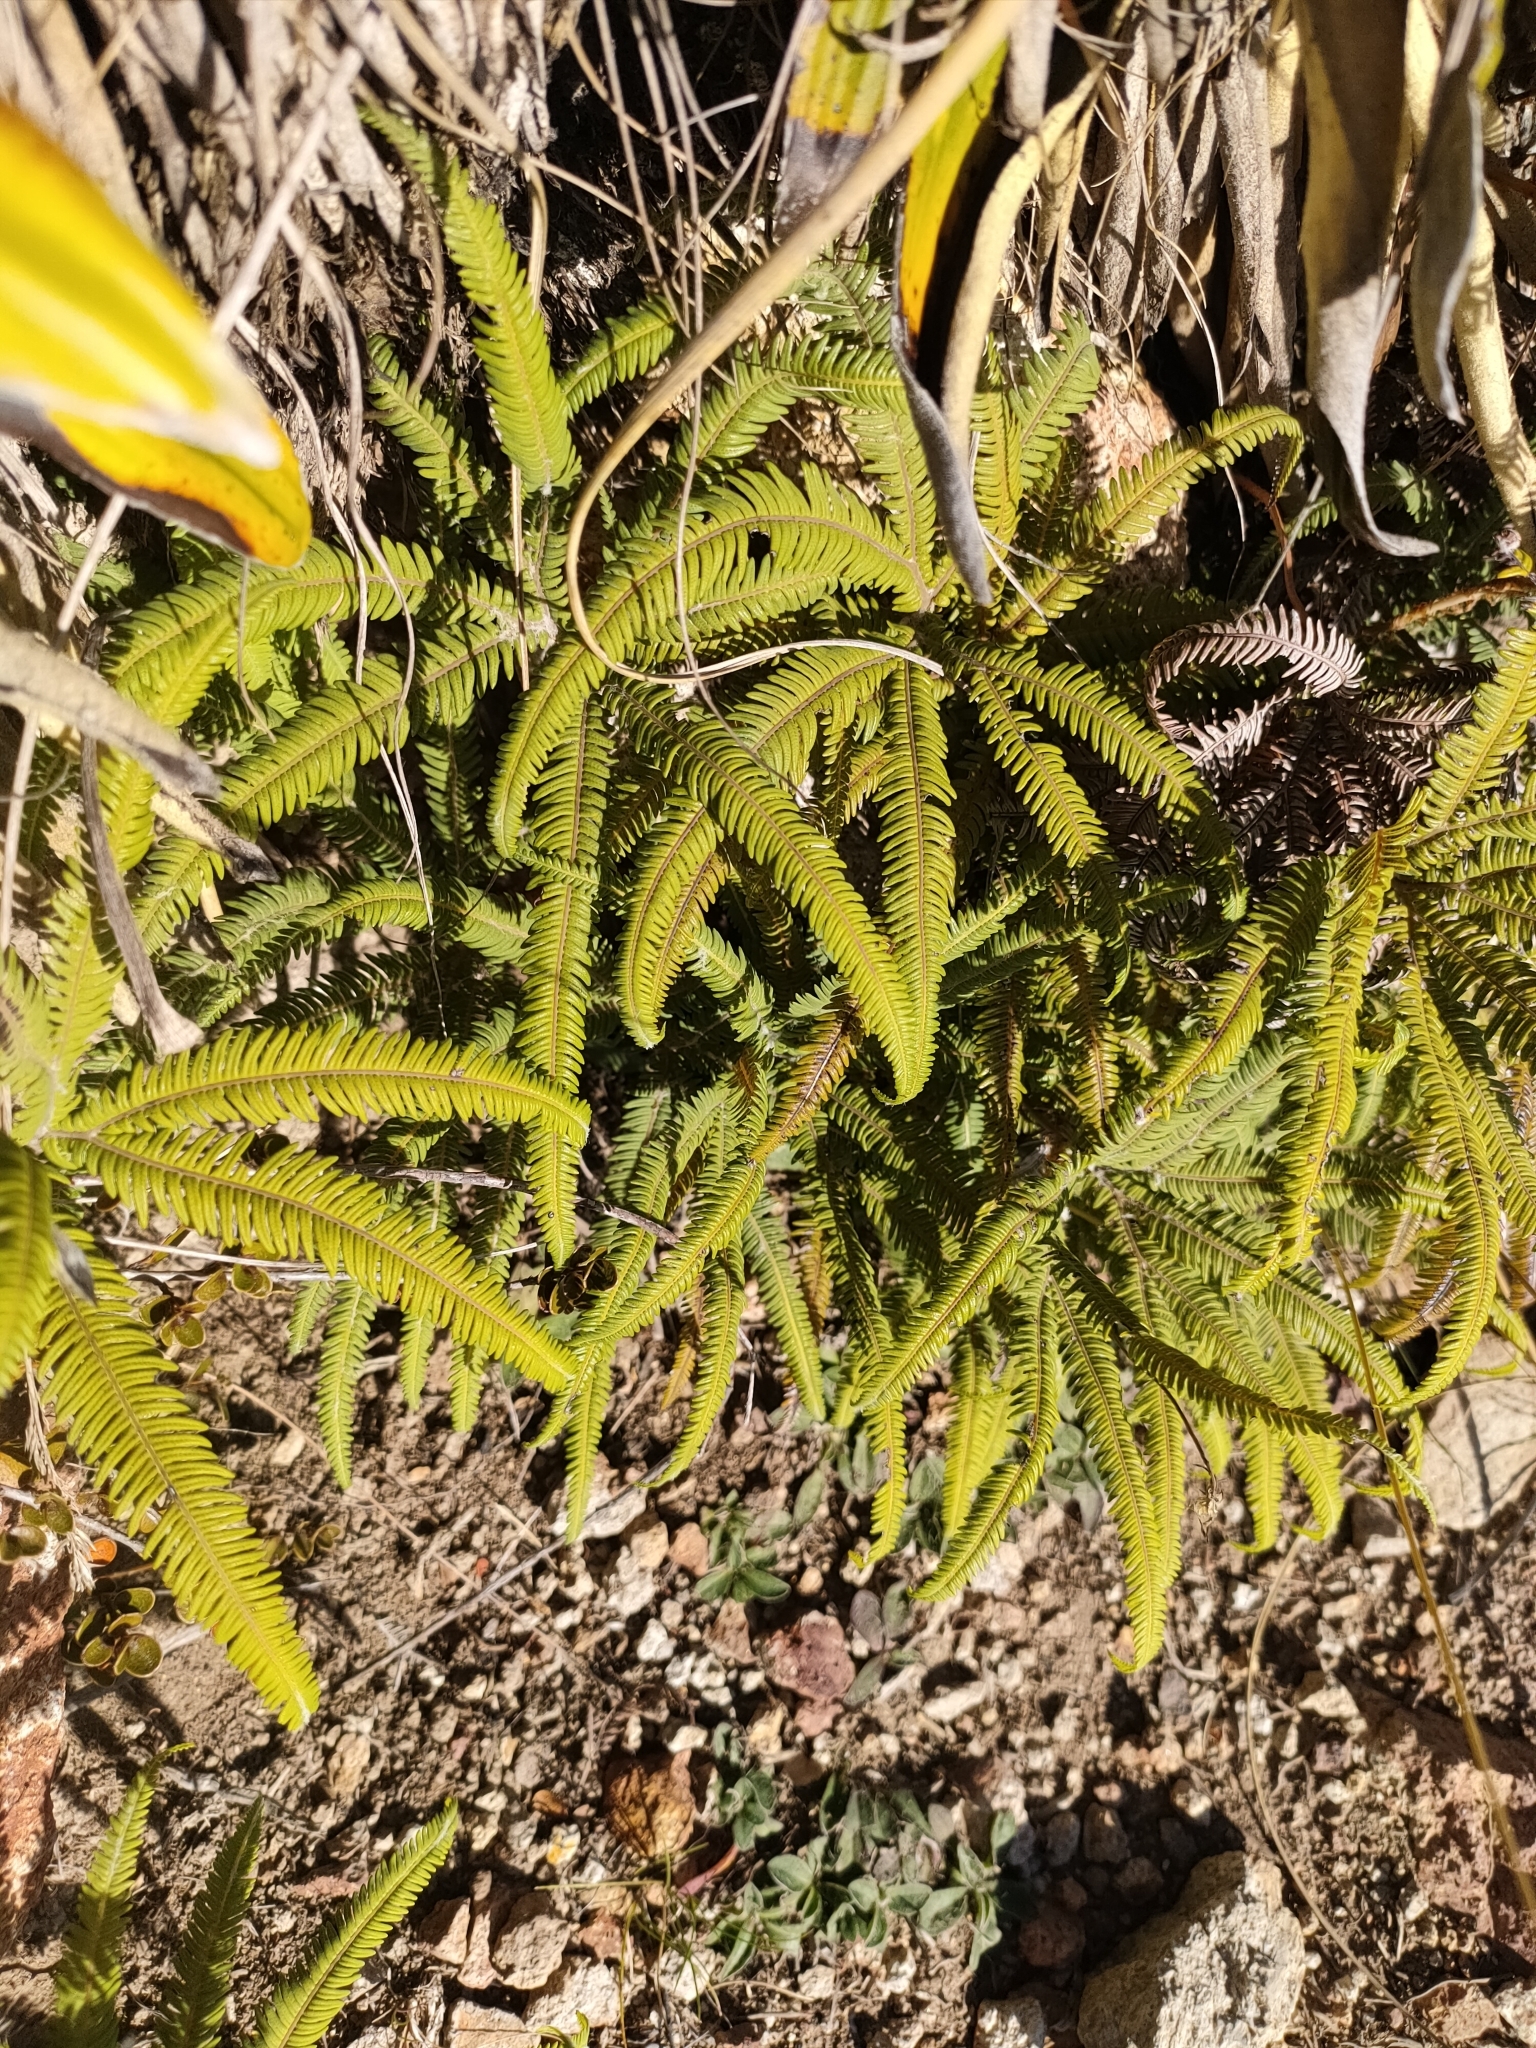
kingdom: Plantae
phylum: Tracheophyta
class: Polypodiopsida
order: Gleicheniales
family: Gleicheniaceae
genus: Sticherus
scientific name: Sticherus cunninghamii
